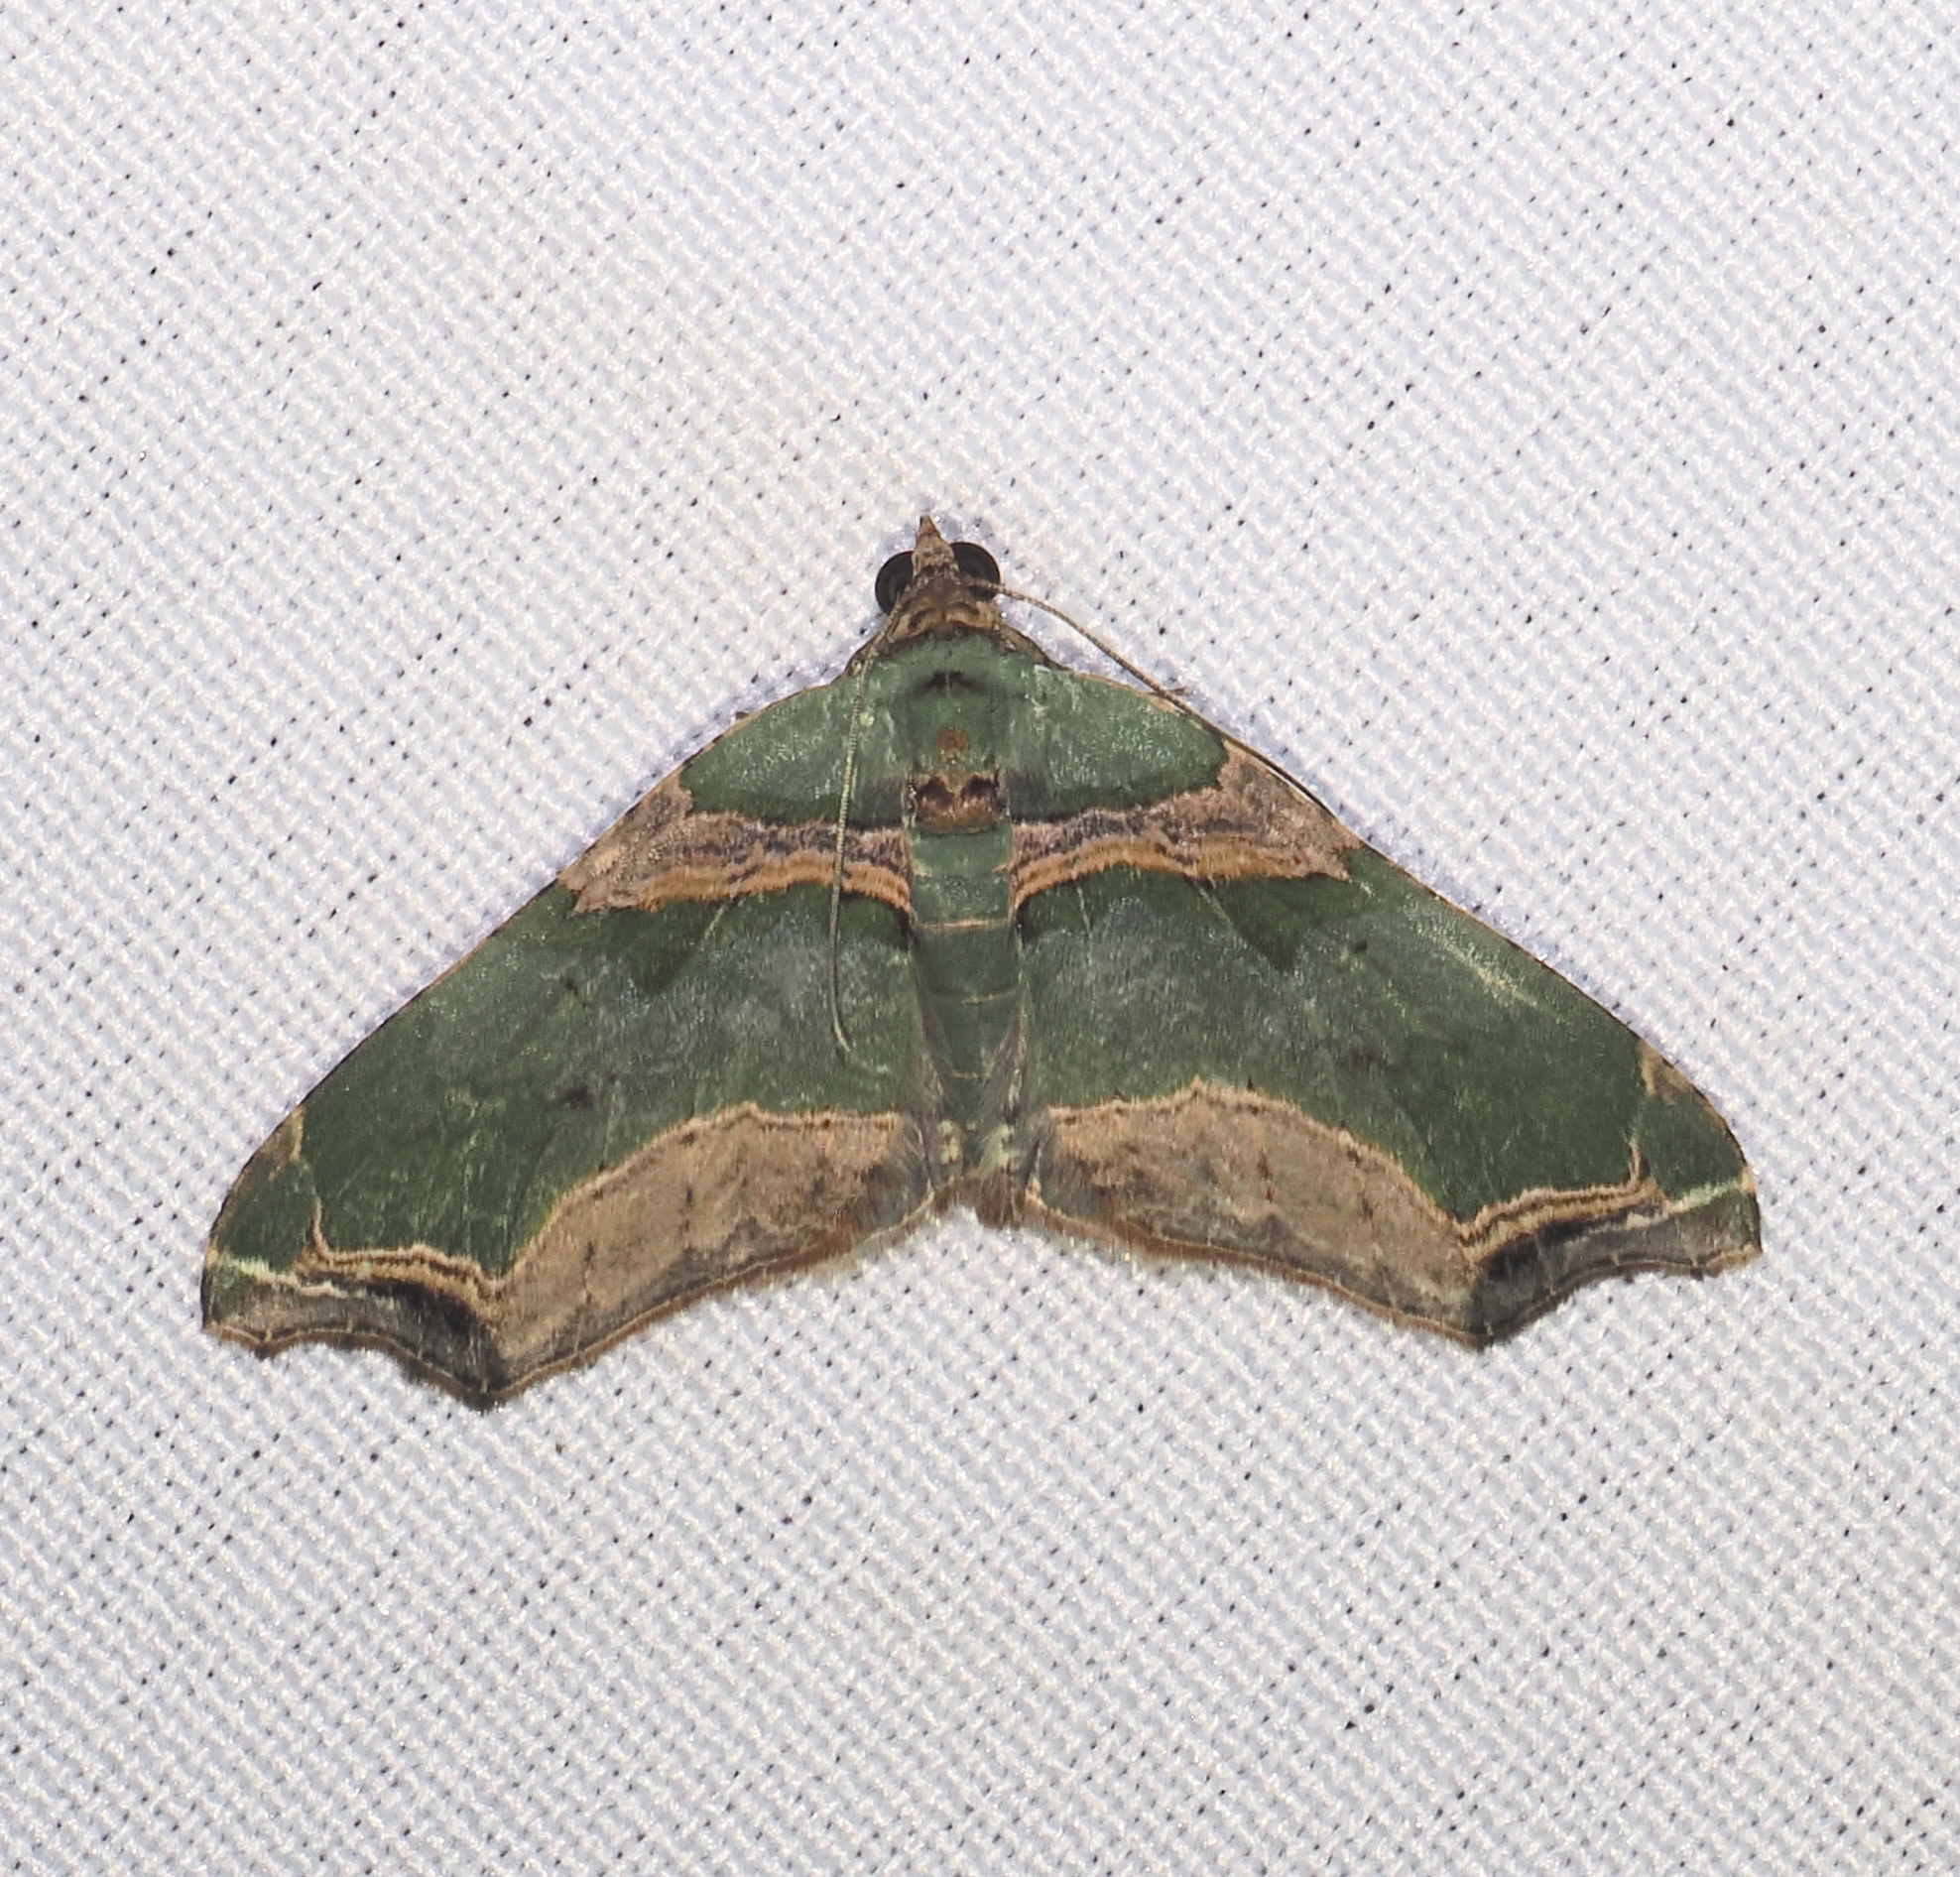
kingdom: Animalia
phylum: Arthropoda
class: Insecta
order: Lepidoptera
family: Geometridae
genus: Oligopleura
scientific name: Oligopleura aulaeata
